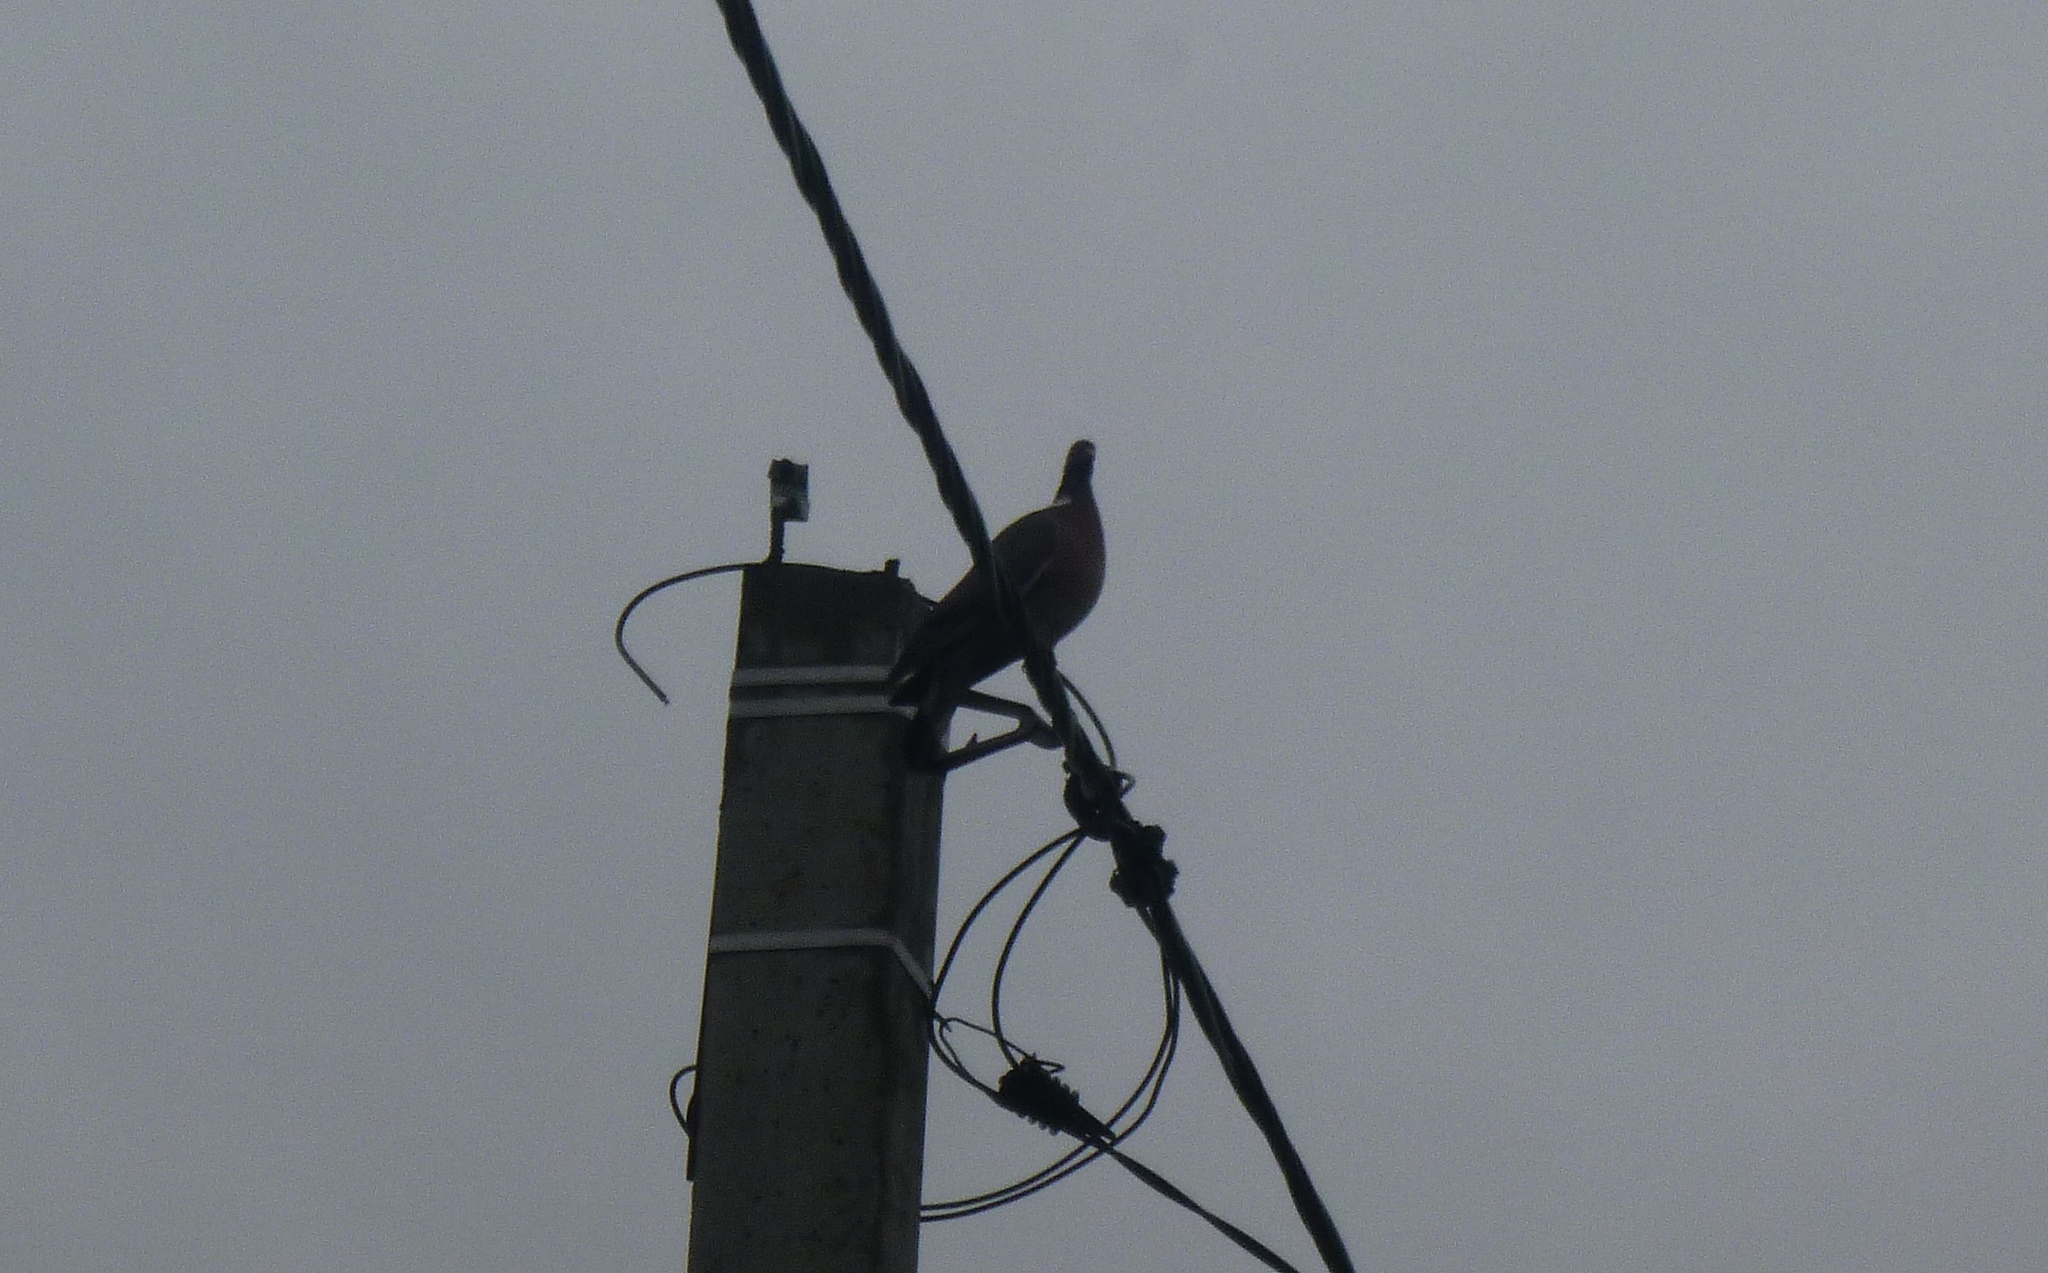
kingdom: Animalia
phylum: Chordata
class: Aves
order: Columbiformes
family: Columbidae
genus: Columba
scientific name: Columba palumbus
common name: Common wood pigeon
